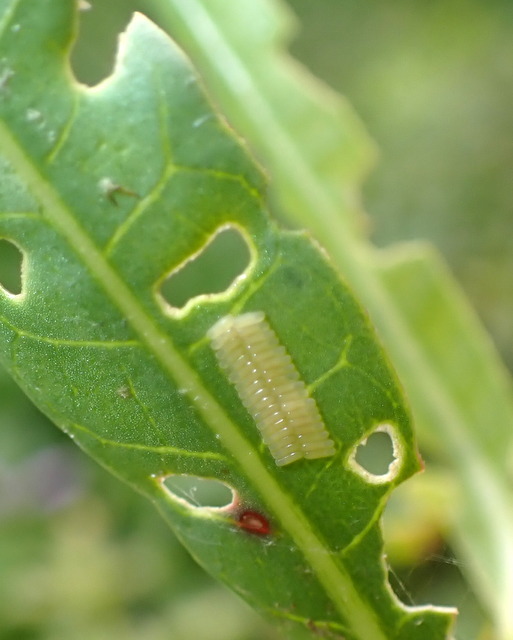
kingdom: Animalia
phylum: Arthropoda
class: Insecta
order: Coleoptera
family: Chrysomelidae
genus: Agasicles
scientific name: Agasicles hygrophila
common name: Alligatorweed flea beetle
